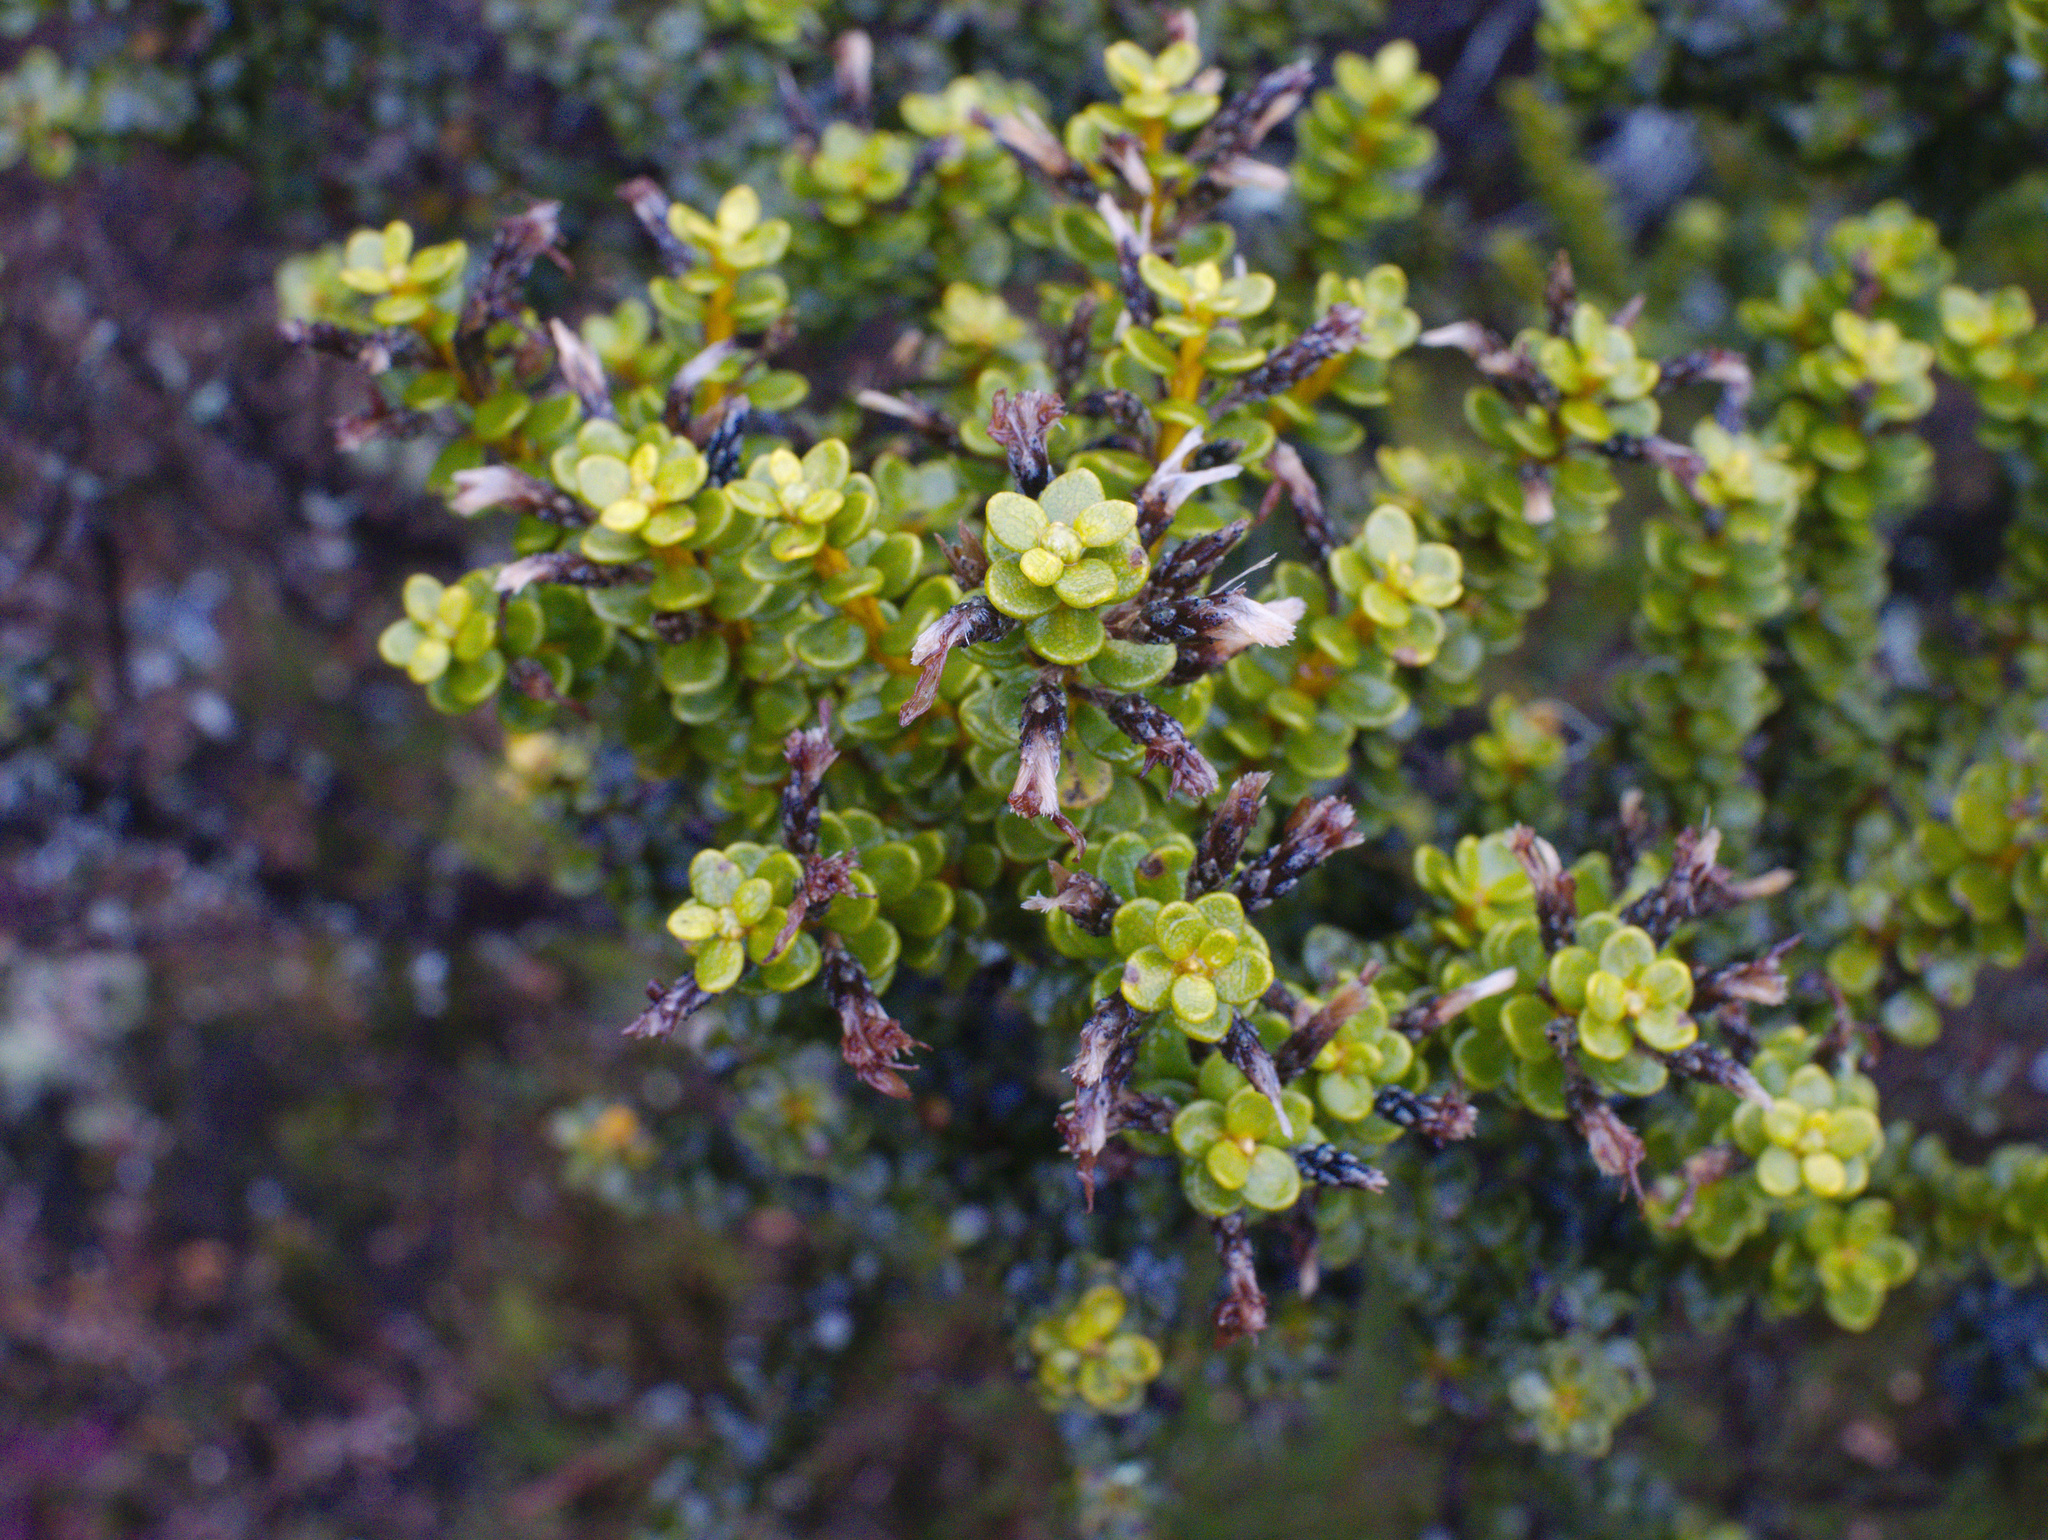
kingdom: Plantae
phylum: Tracheophyta
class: Magnoliopsida
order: Asterales
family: Asteraceae
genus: Olearia
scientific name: Olearia nummularifolia
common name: Sticky daisybush
